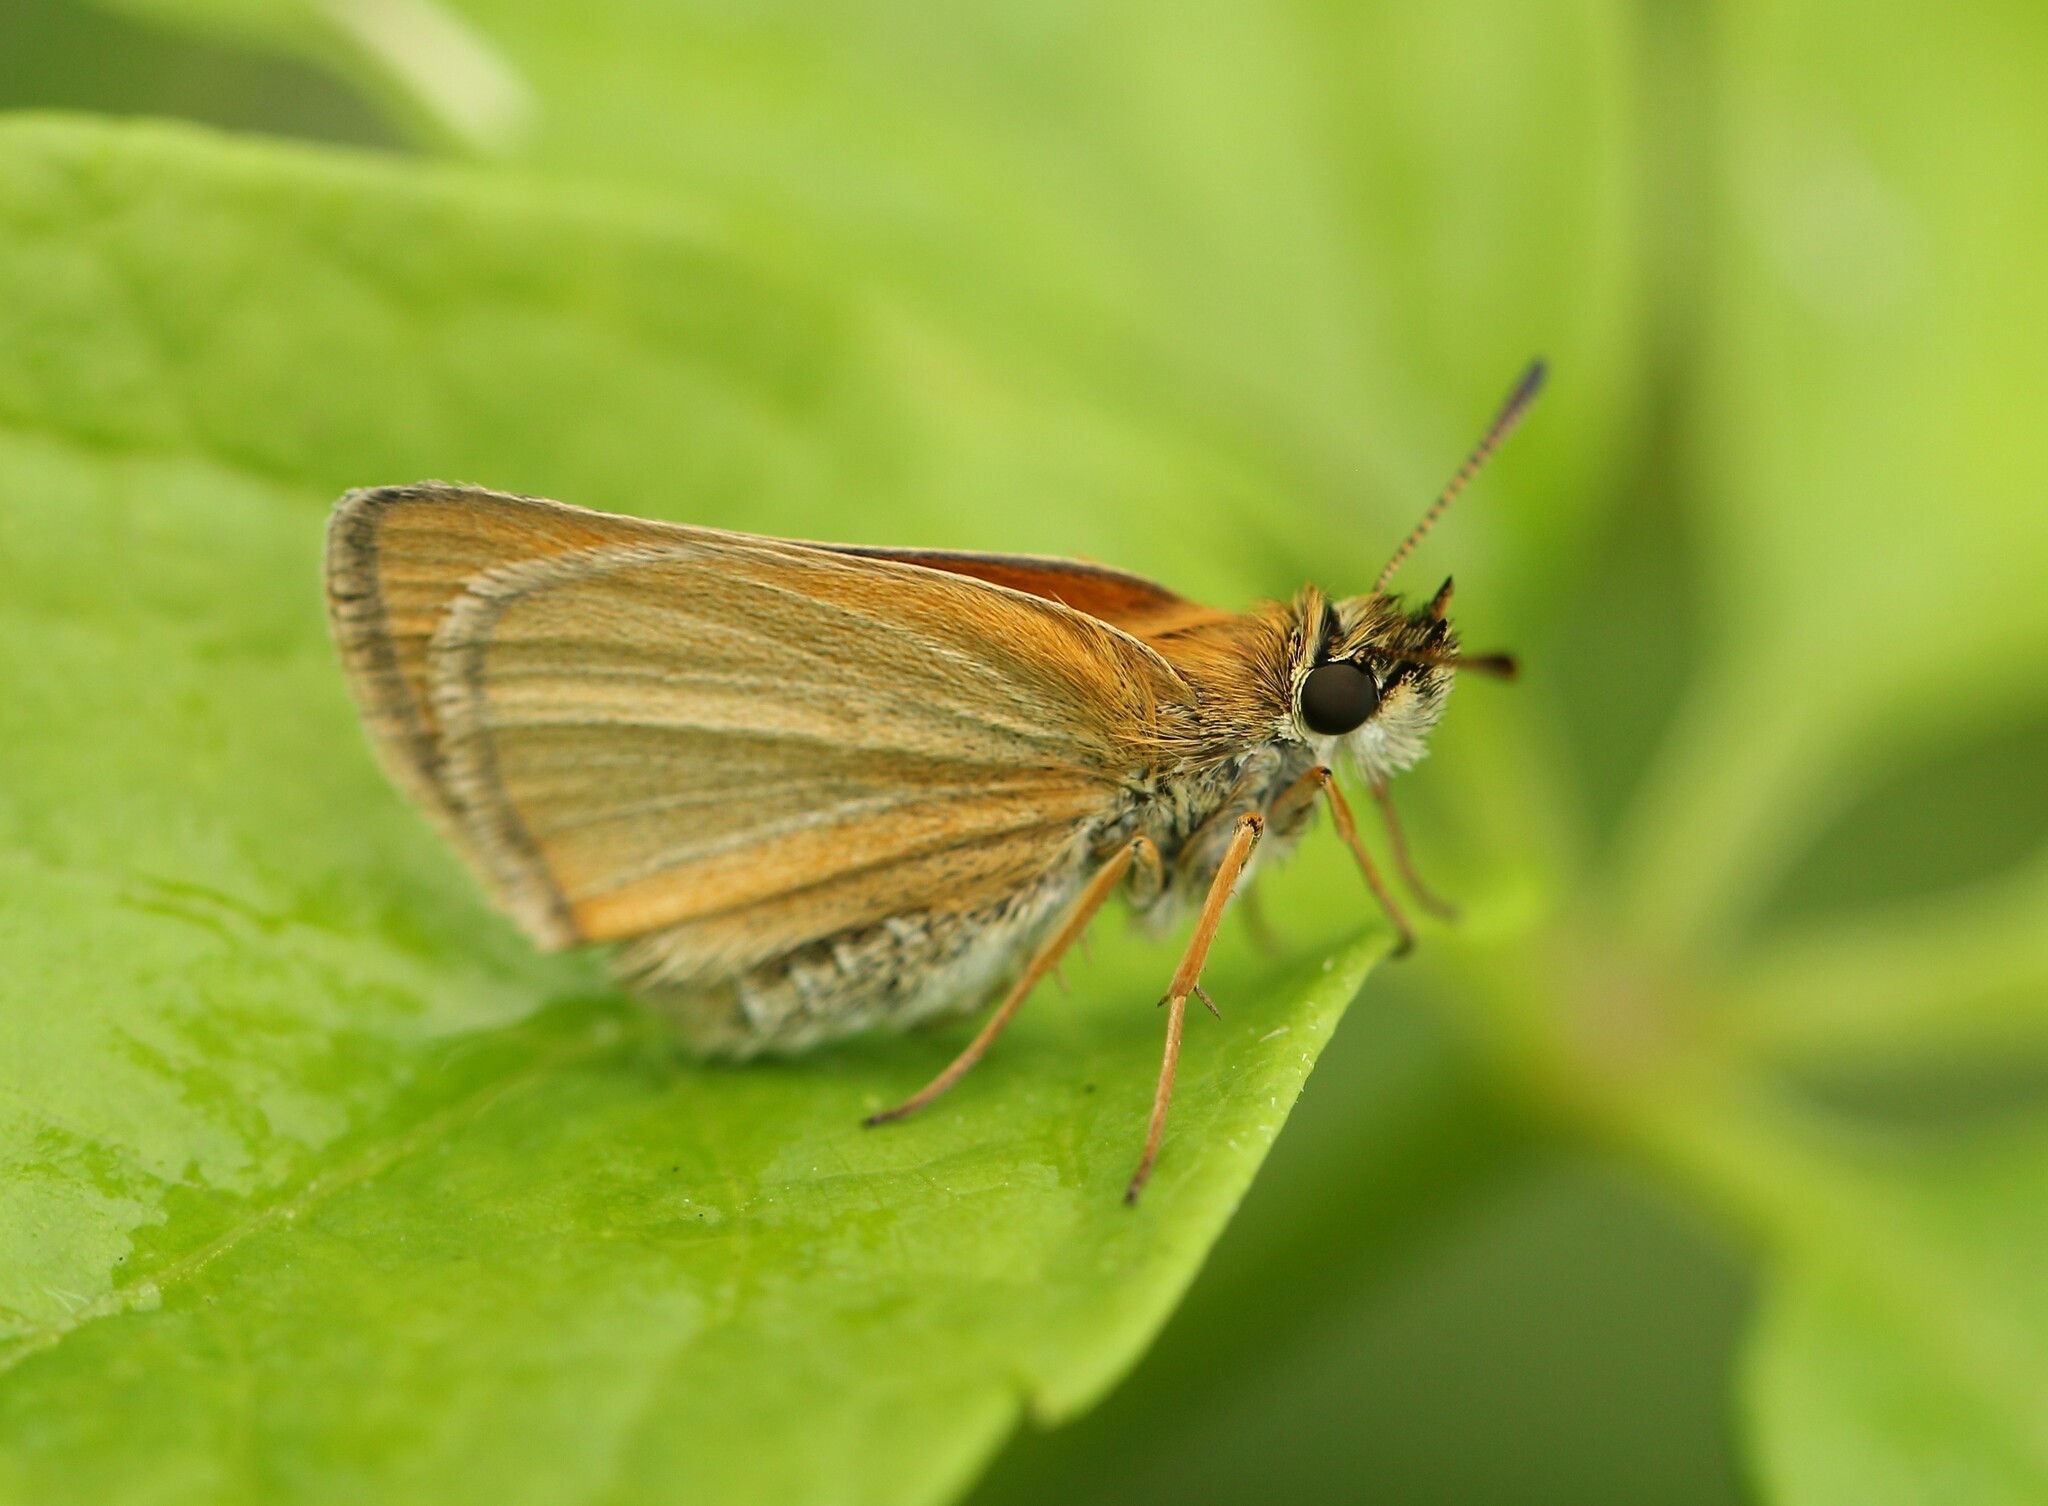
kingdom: Animalia
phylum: Arthropoda
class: Insecta
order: Lepidoptera
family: Hesperiidae
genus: Thymelicus
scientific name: Thymelicus lineola
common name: Essex skipper
